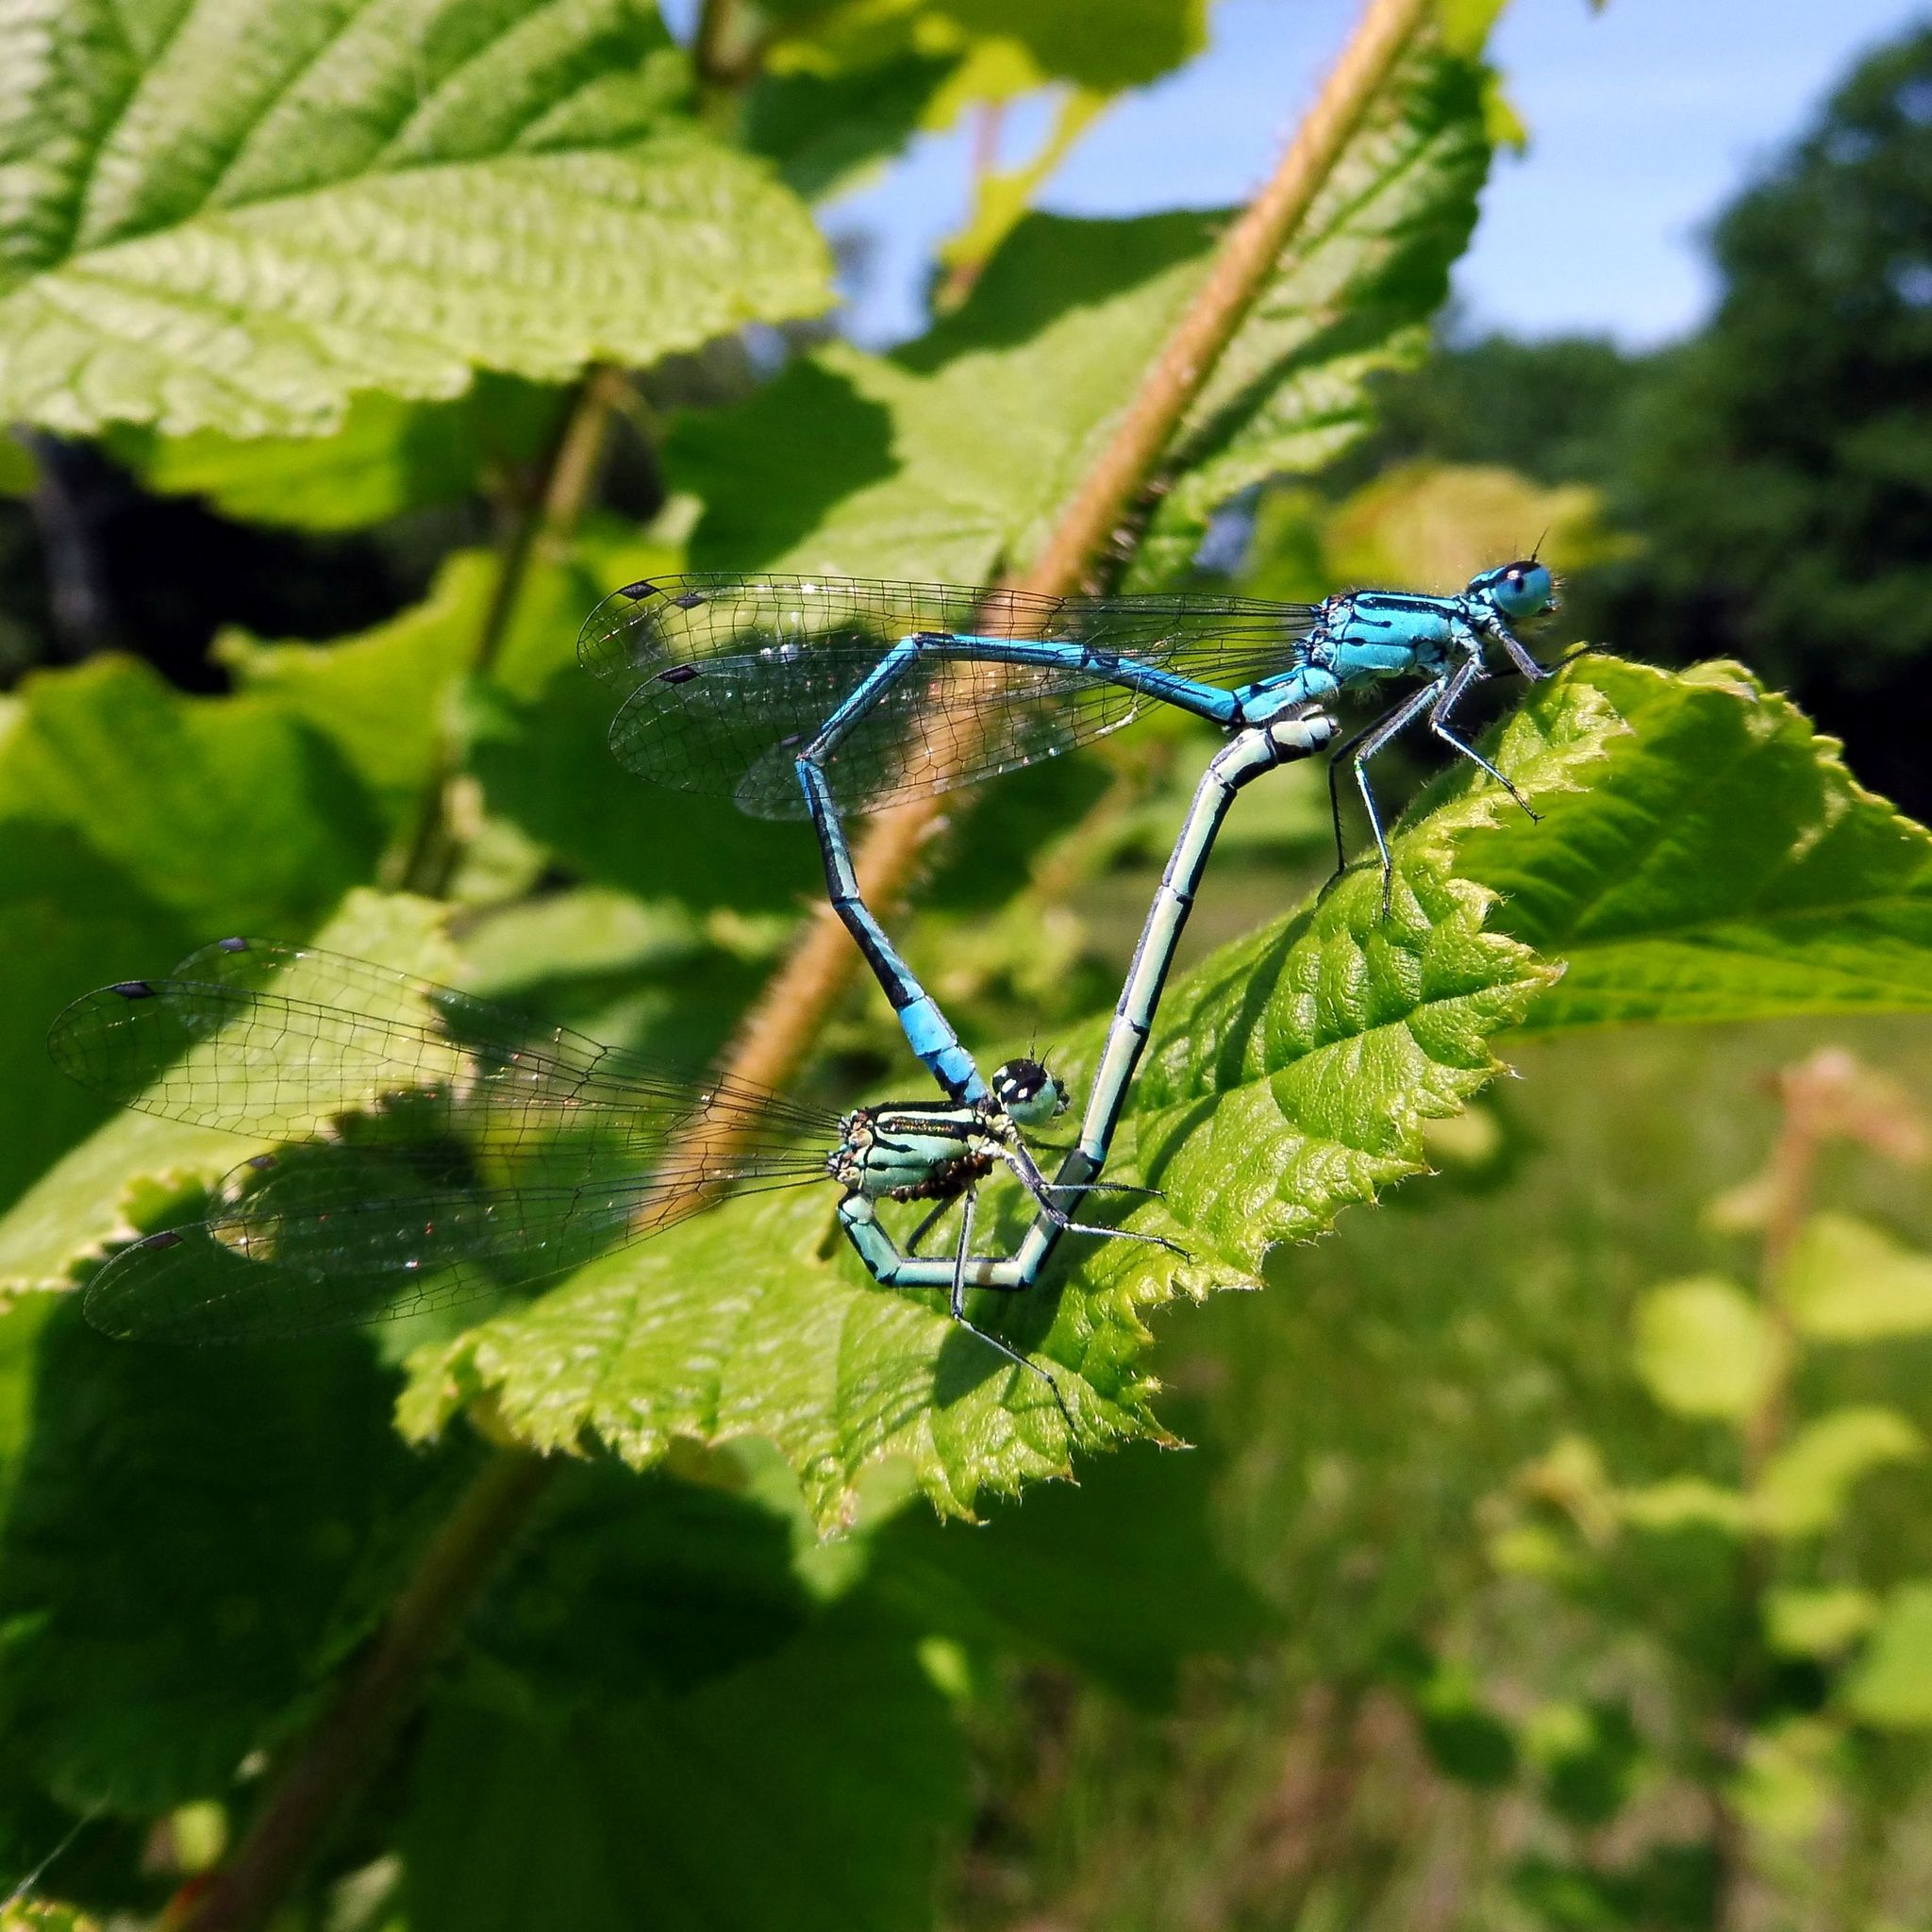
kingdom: Animalia
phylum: Arthropoda
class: Insecta
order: Odonata
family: Coenagrionidae
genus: Coenagrion
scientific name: Coenagrion puella
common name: Azure damselfly
